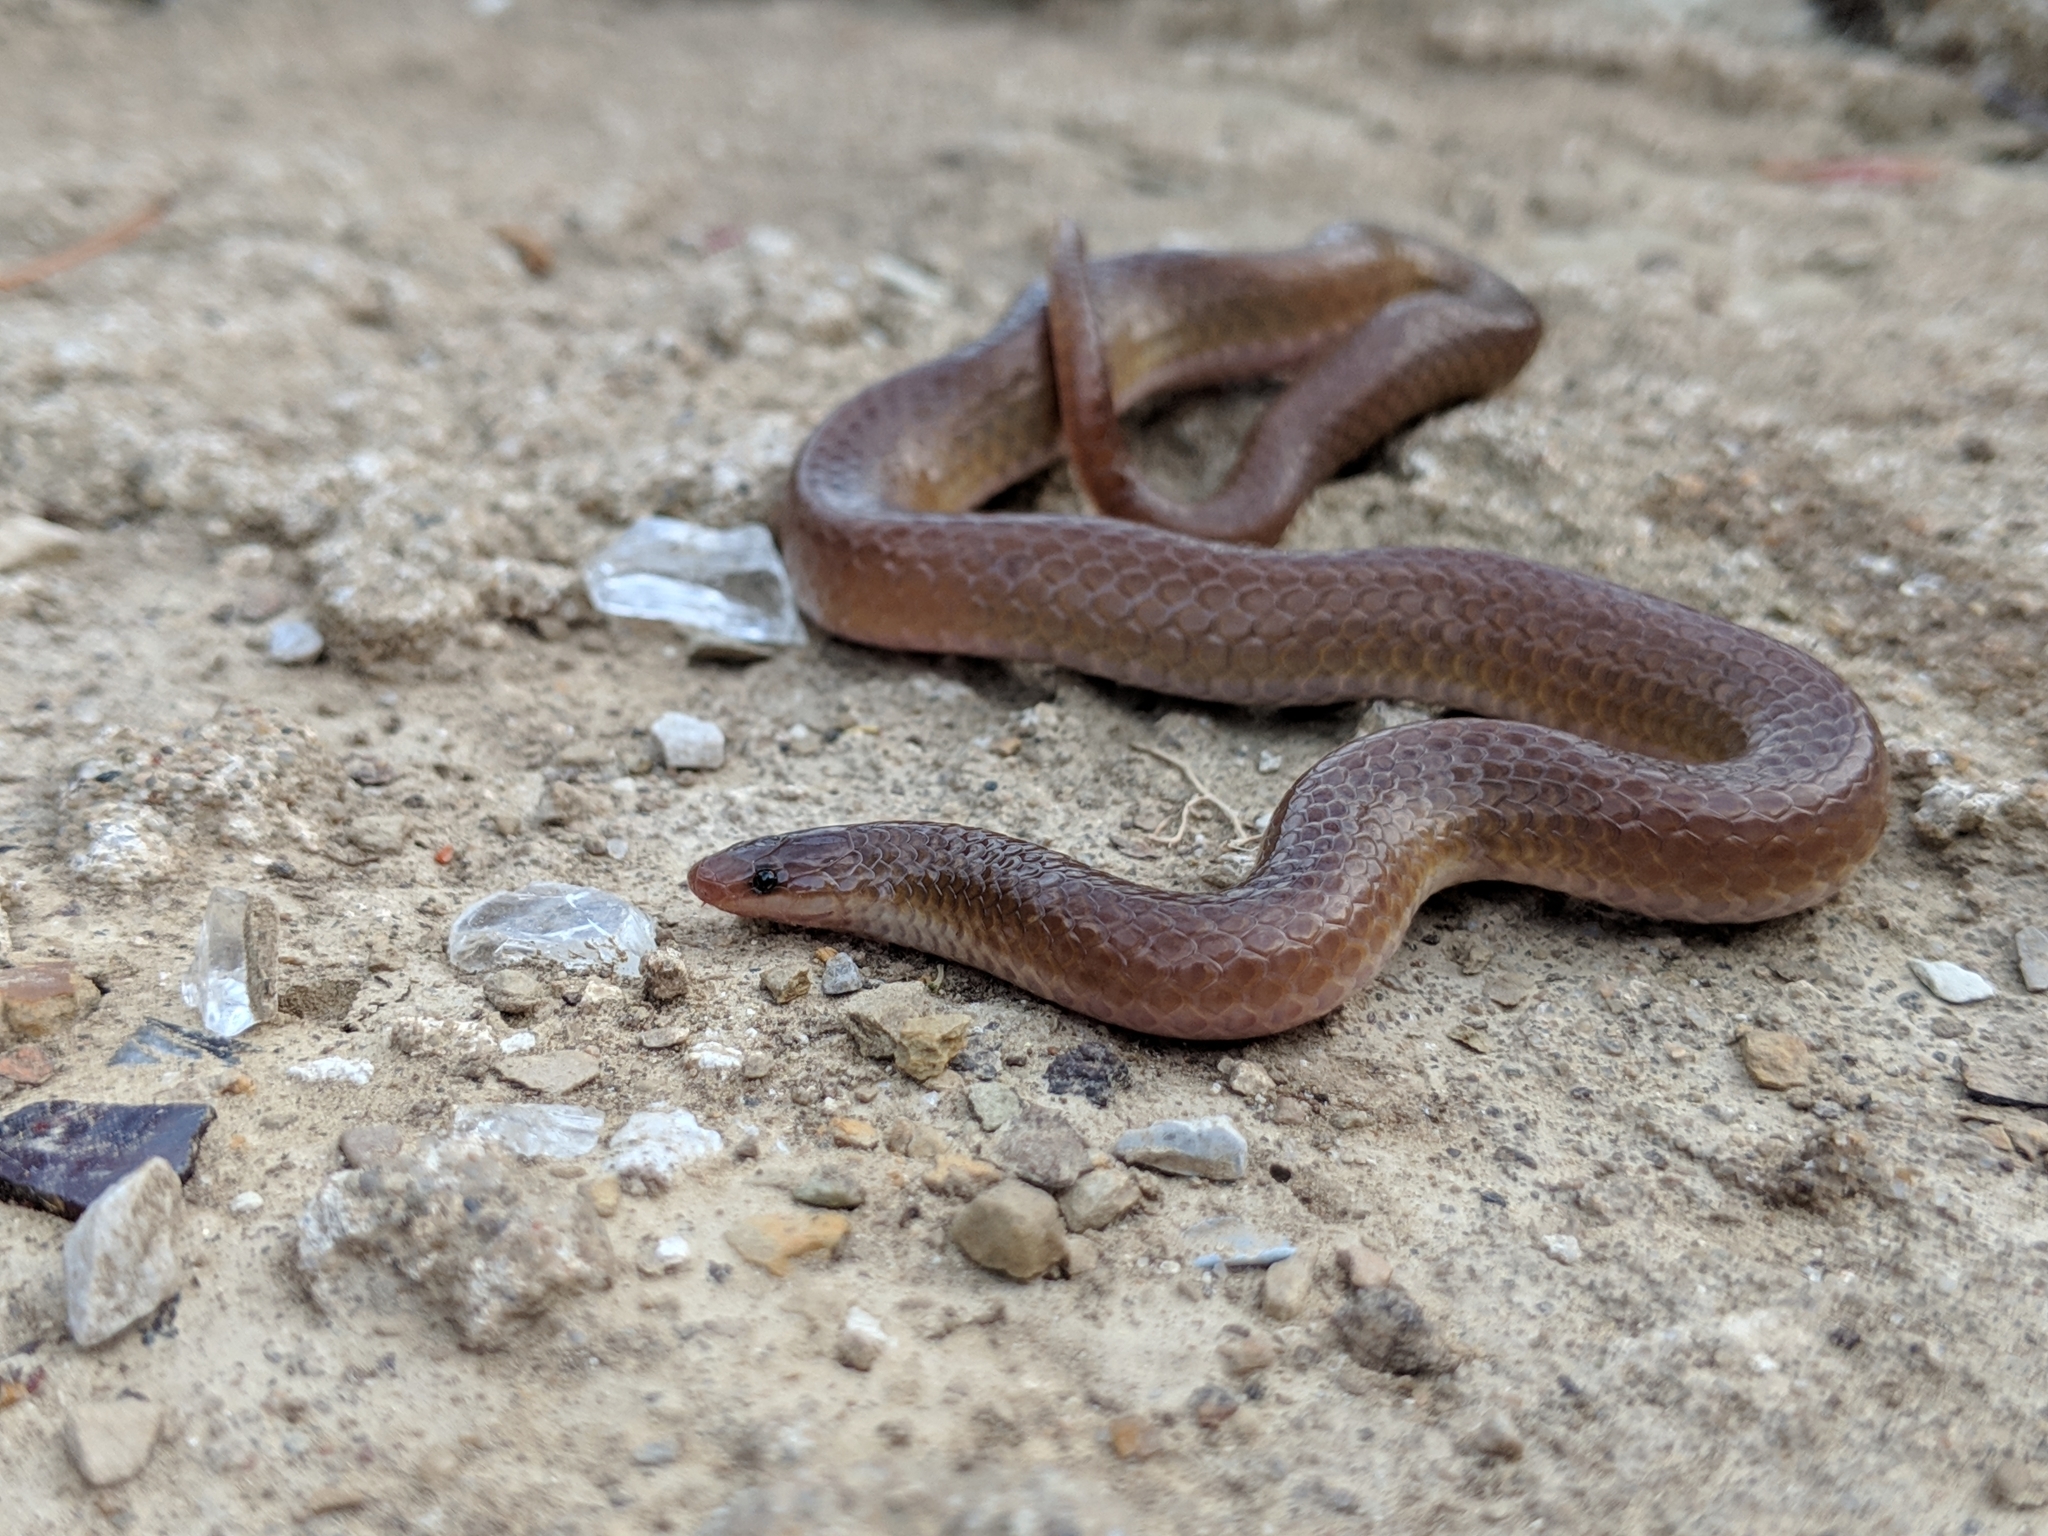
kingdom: Animalia
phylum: Chordata
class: Squamata
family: Colubridae
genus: Carphophis
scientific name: Carphophis amoenus
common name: Eastern worm snake
